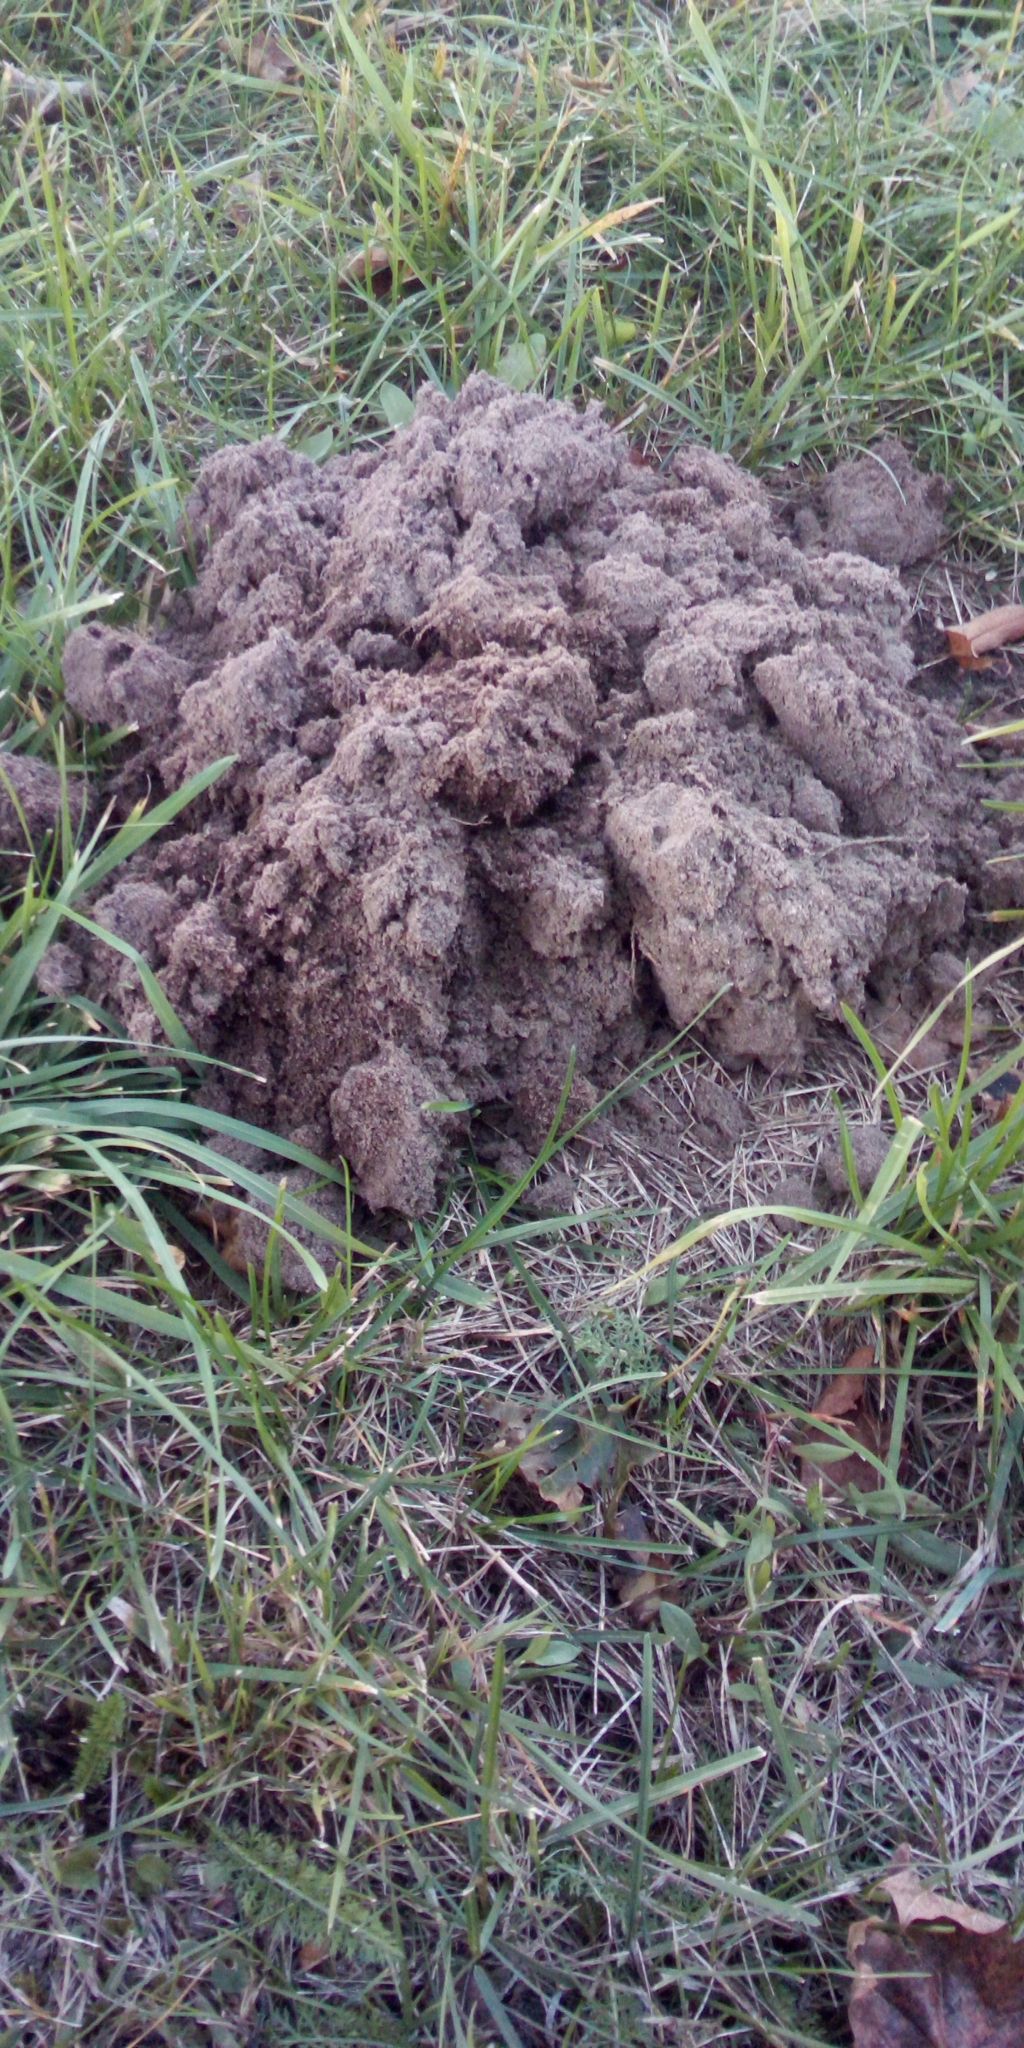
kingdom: Animalia
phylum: Chordata
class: Mammalia
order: Soricomorpha
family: Talpidae
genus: Talpa
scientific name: Talpa europaea
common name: European mole
